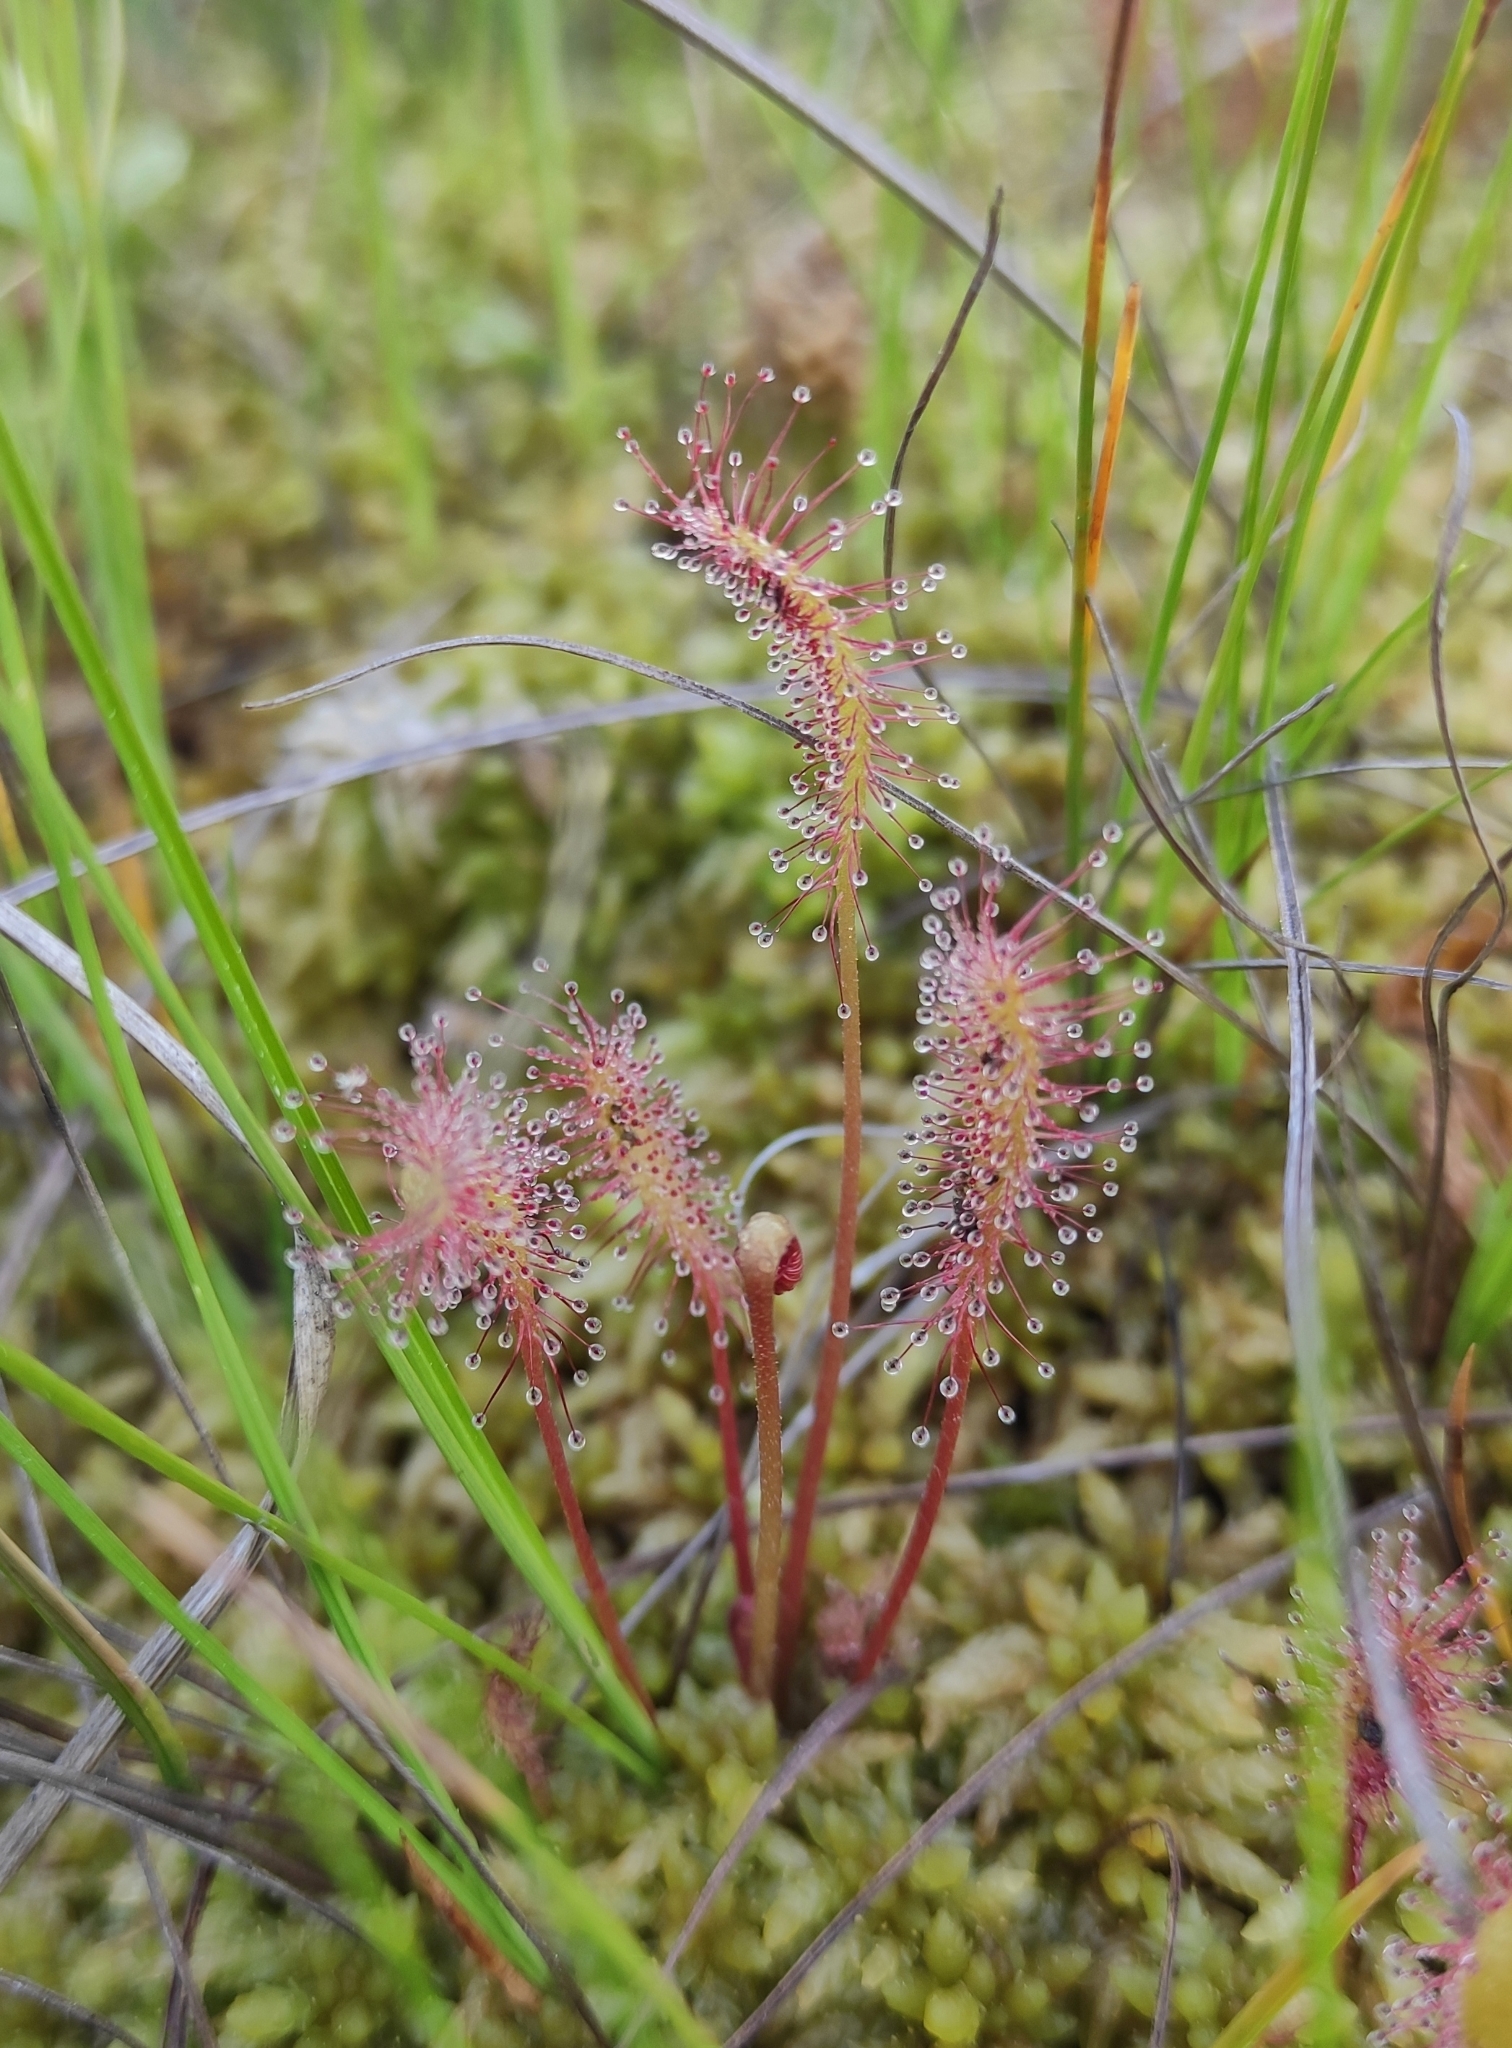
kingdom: Plantae
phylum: Tracheophyta
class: Magnoliopsida
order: Caryophyllales
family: Droseraceae
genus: Drosera
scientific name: Drosera anglica
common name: Great sundew
